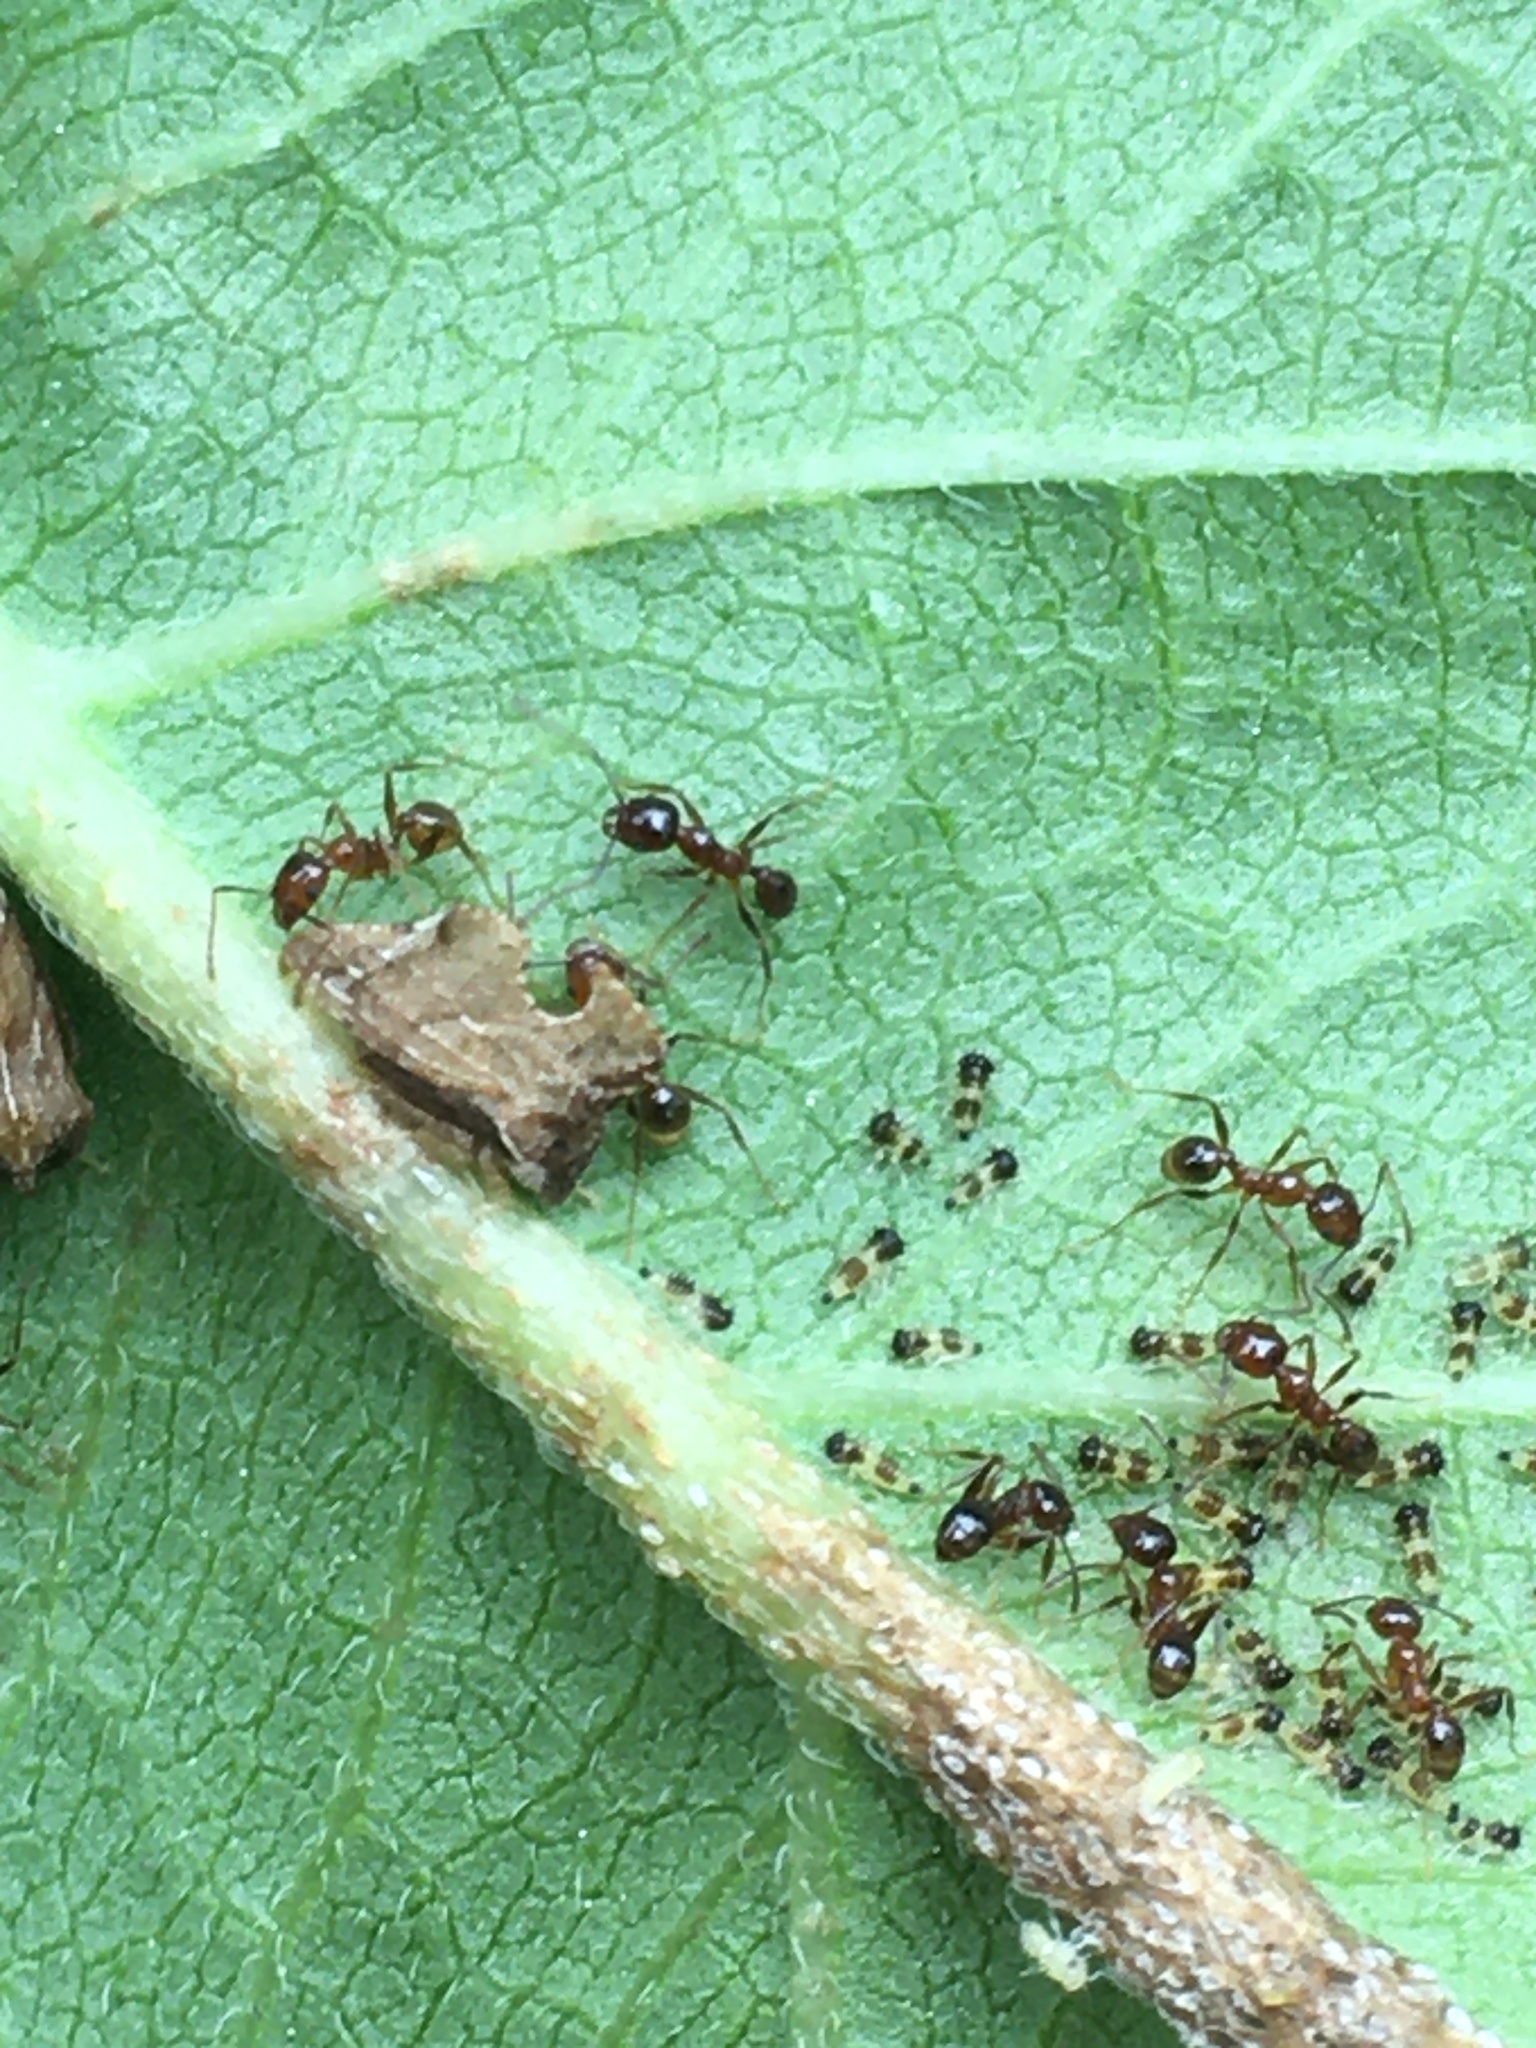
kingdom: Animalia
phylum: Arthropoda
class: Insecta
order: Hymenoptera
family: Formicidae
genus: Pheidole
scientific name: Pheidole bicarinata
